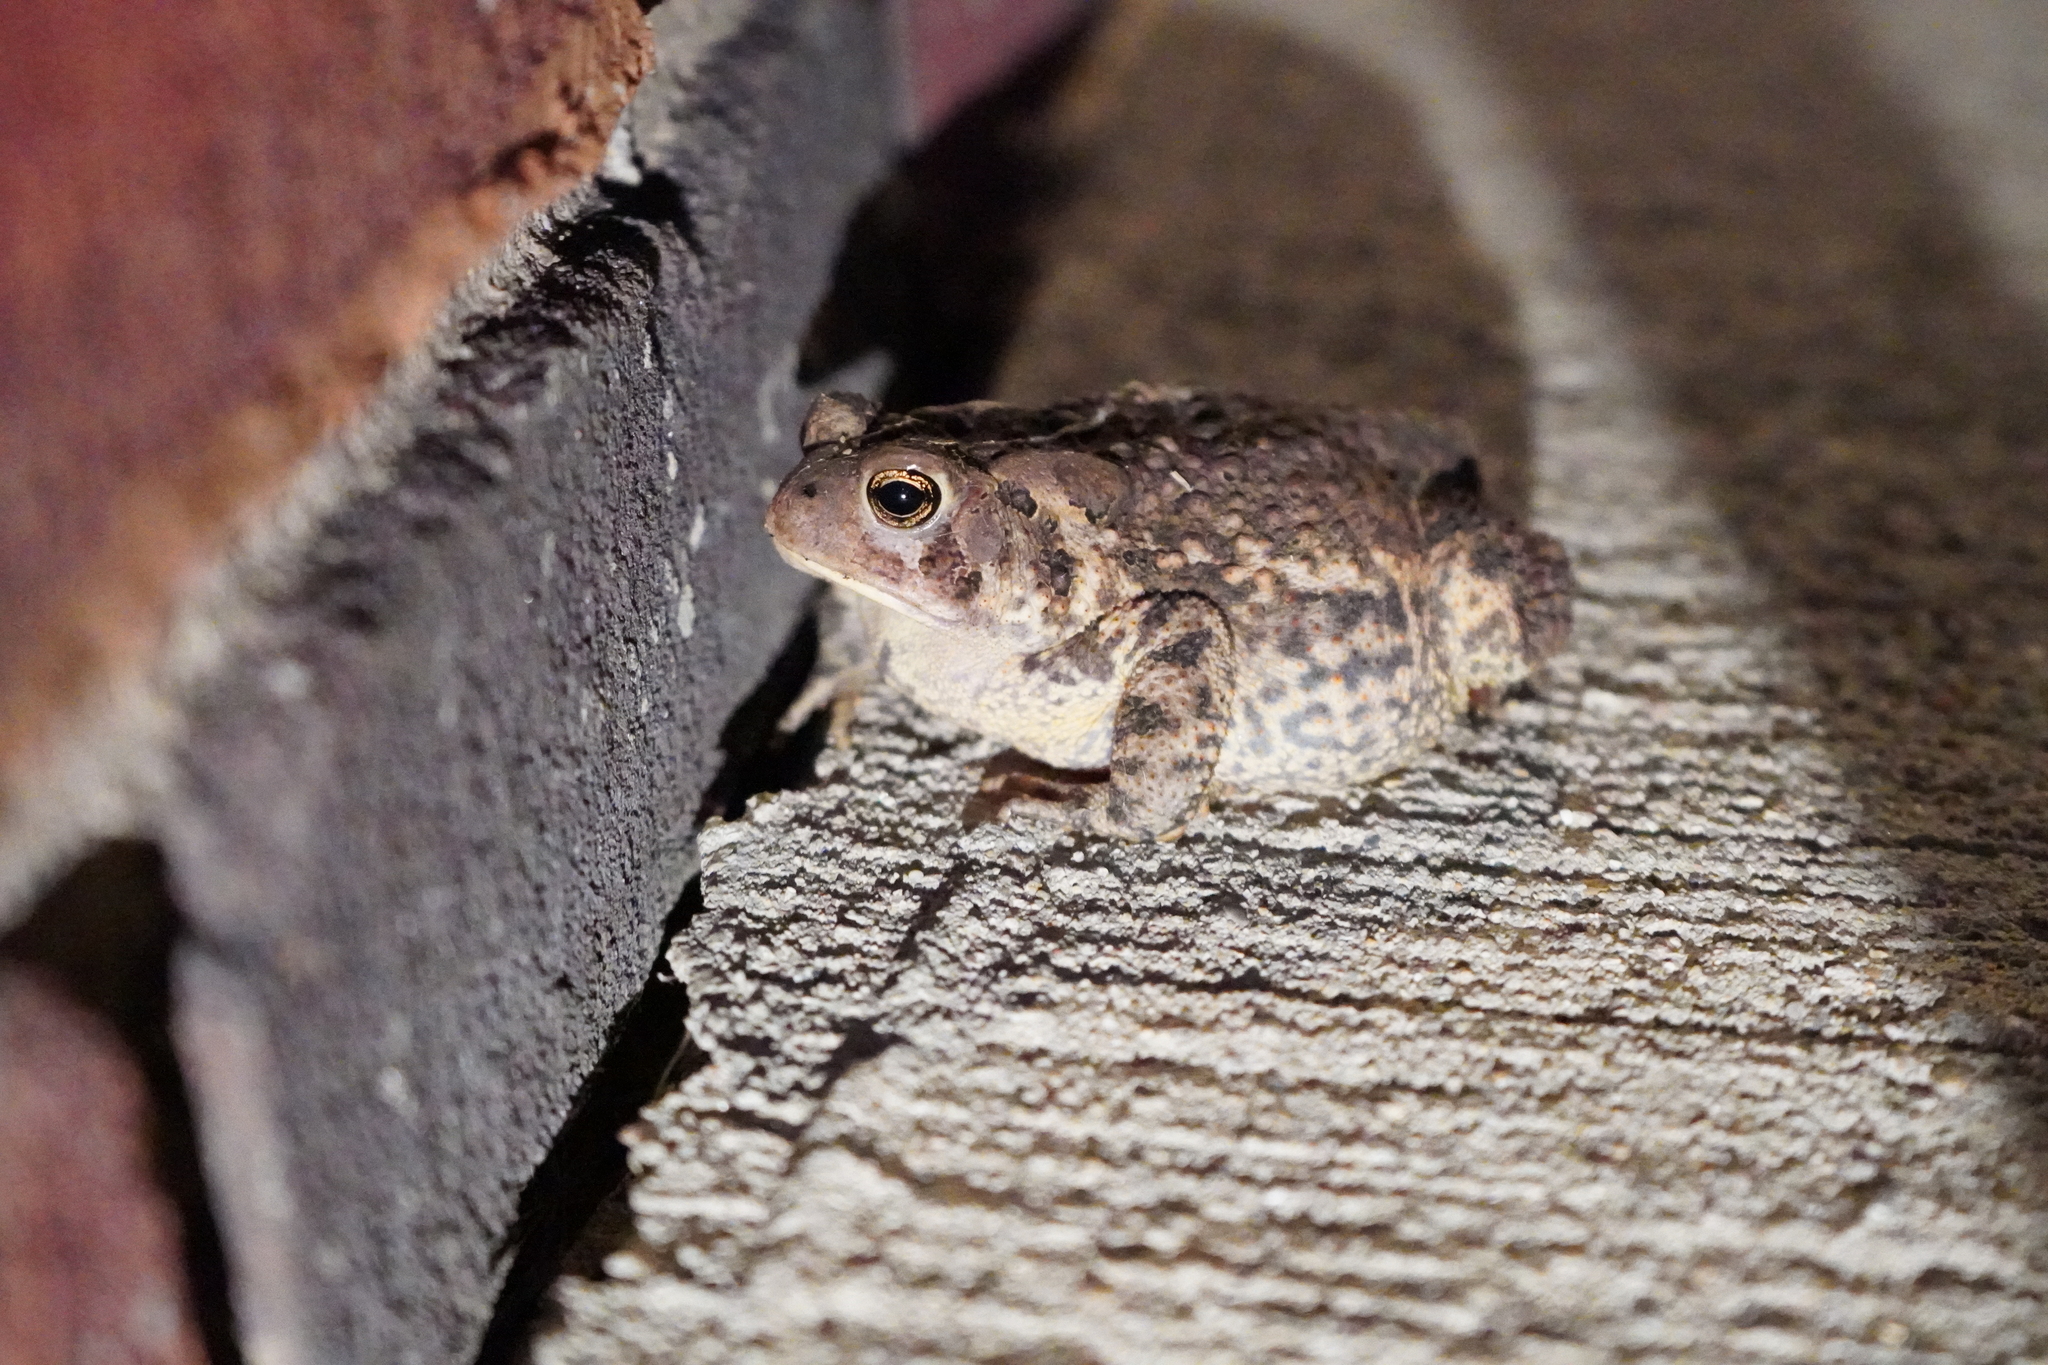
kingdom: Animalia
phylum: Chordata
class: Amphibia
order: Anura
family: Bufonidae
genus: Anaxyrus
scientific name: Anaxyrus americanus
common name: American toad
